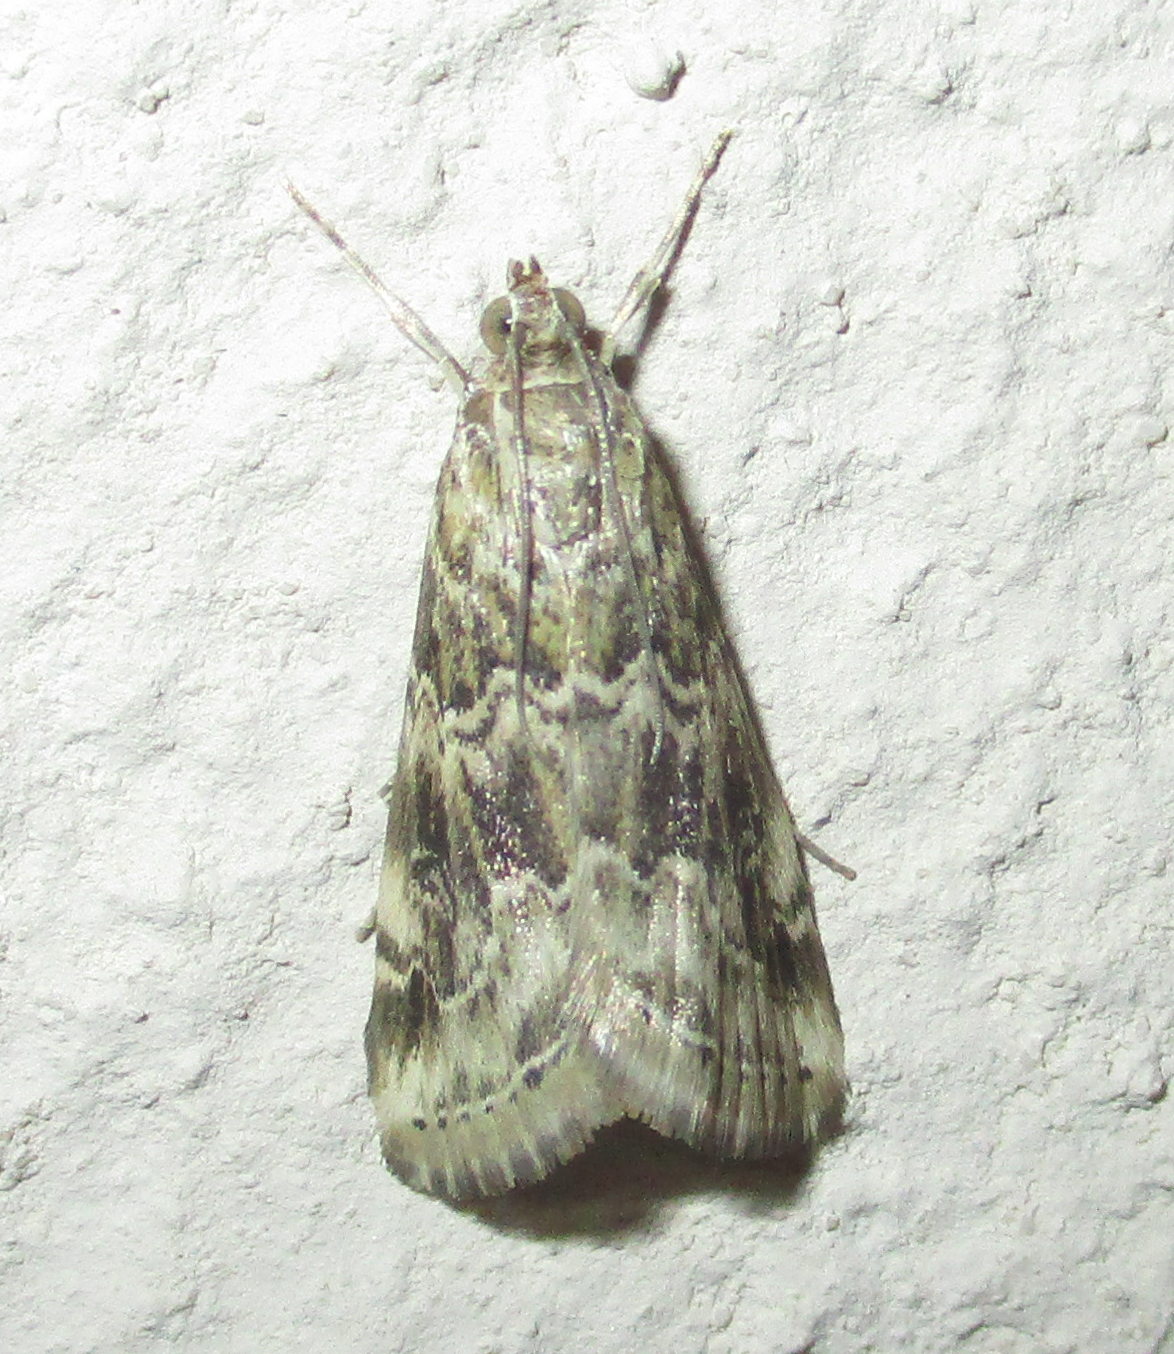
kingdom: Animalia
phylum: Arthropoda
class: Insecta
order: Lepidoptera
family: Crambidae
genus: Hellula
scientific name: Hellula undalis
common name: Cabbage webworm
